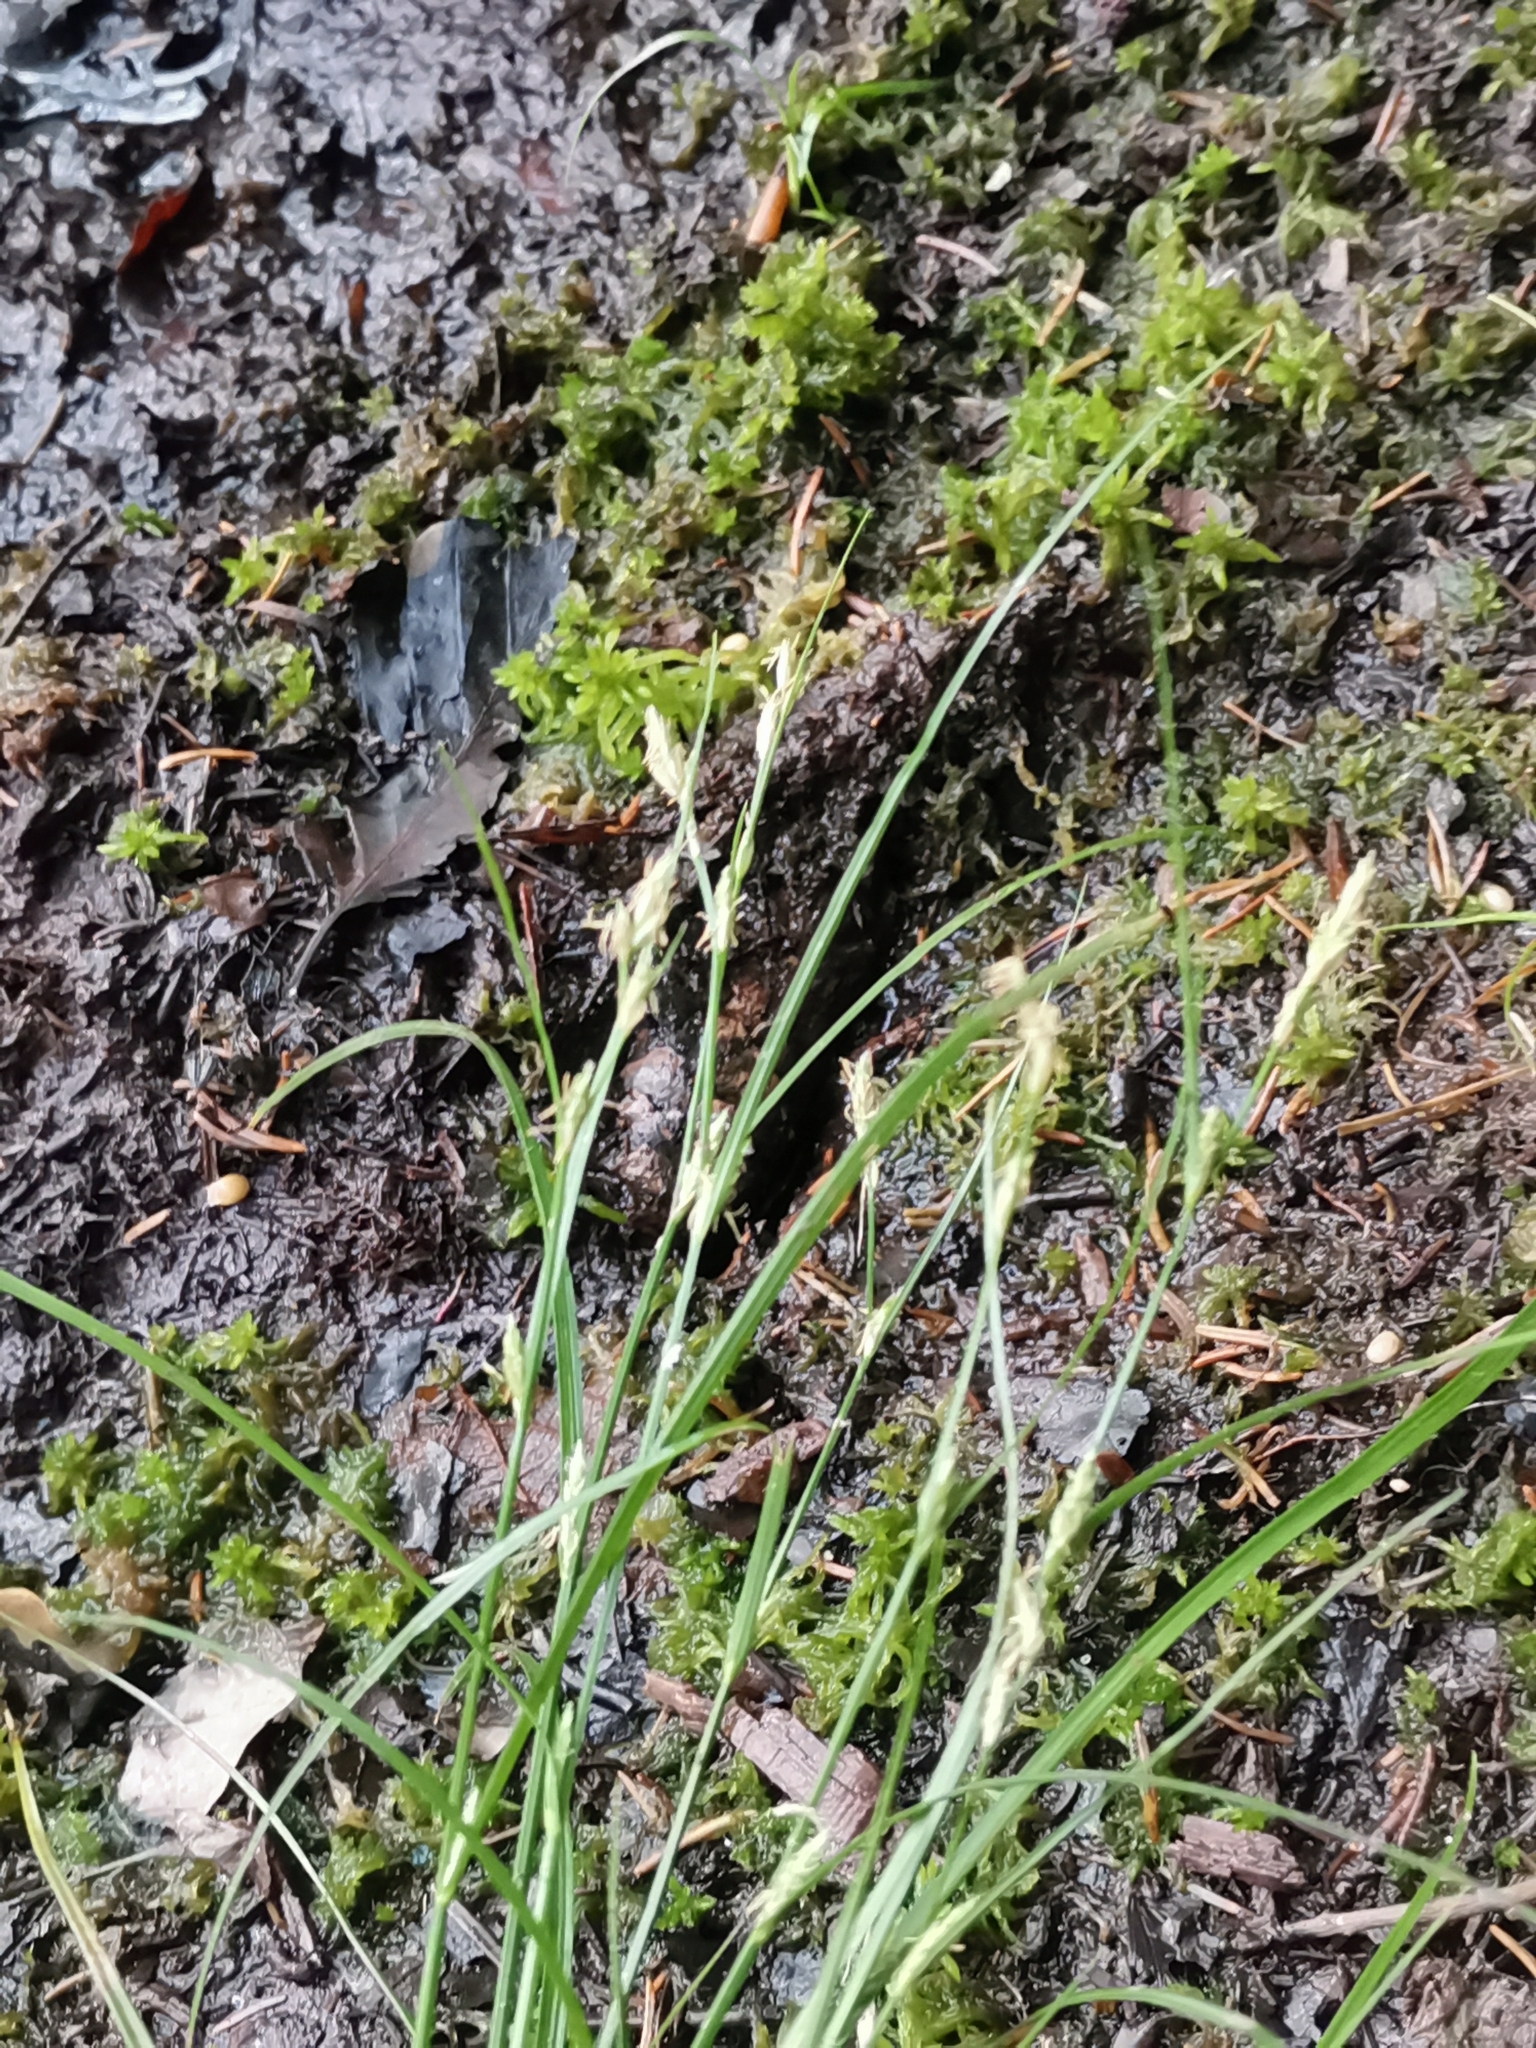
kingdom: Plantae
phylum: Tracheophyta
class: Liliopsida
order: Poales
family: Cyperaceae
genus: Carex
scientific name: Carex remota
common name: Remote sedge
